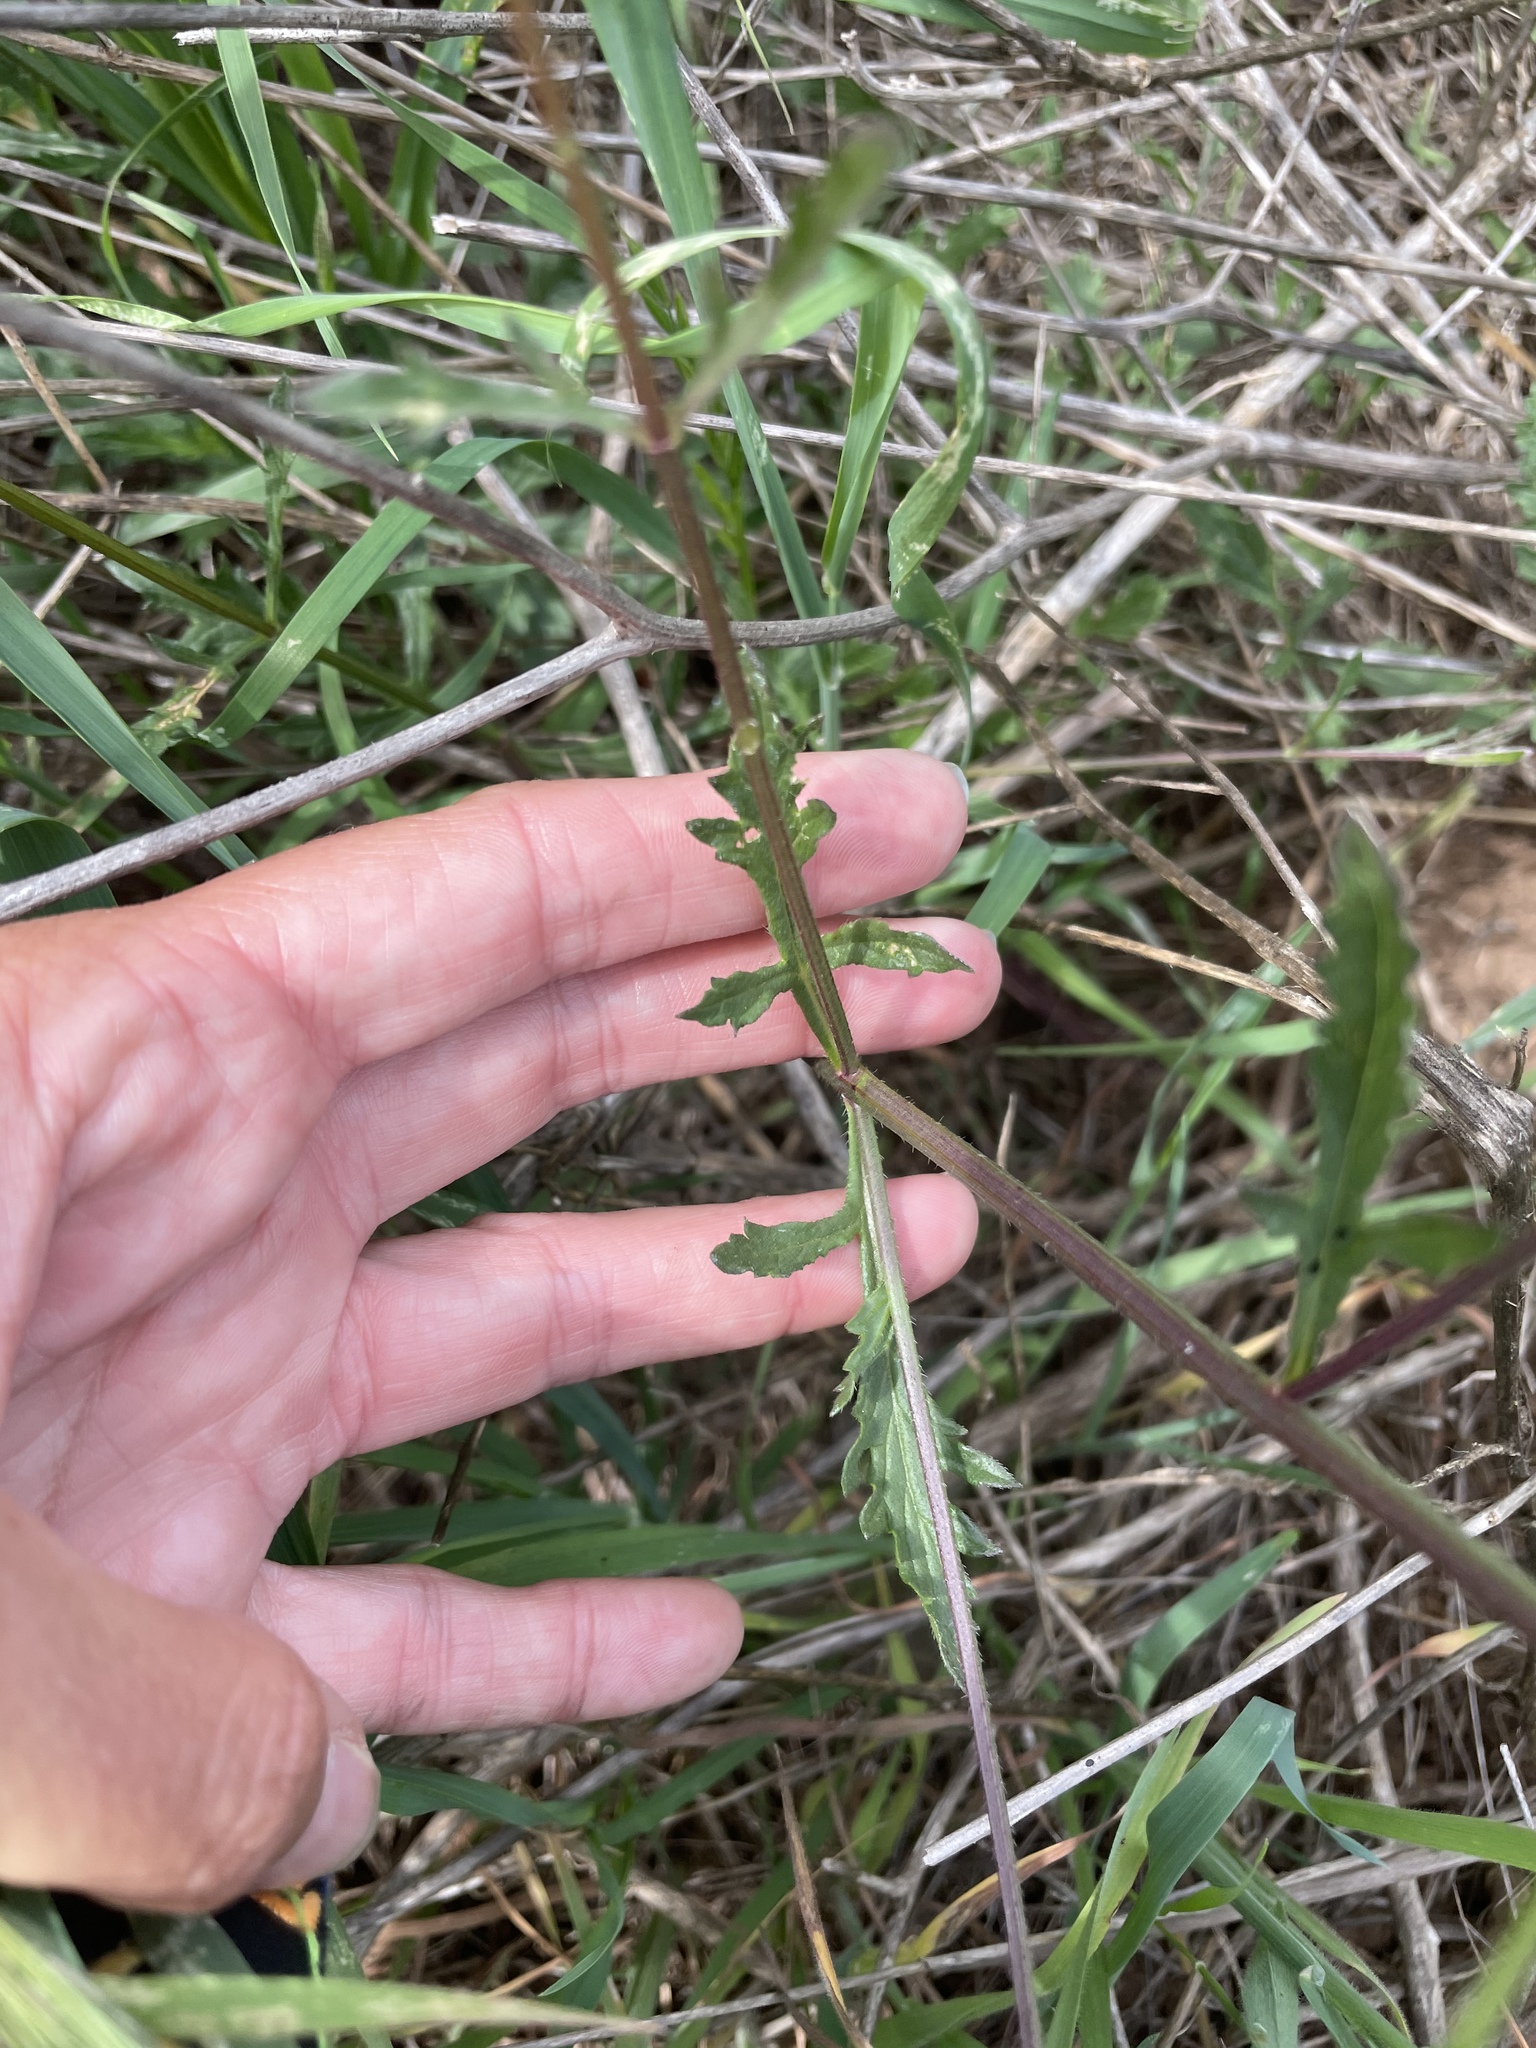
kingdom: Plantae
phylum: Tracheophyta
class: Magnoliopsida
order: Lamiales
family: Verbenaceae
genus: Verbena
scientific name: Verbena menthifolia
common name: Mint-leaf vervain
